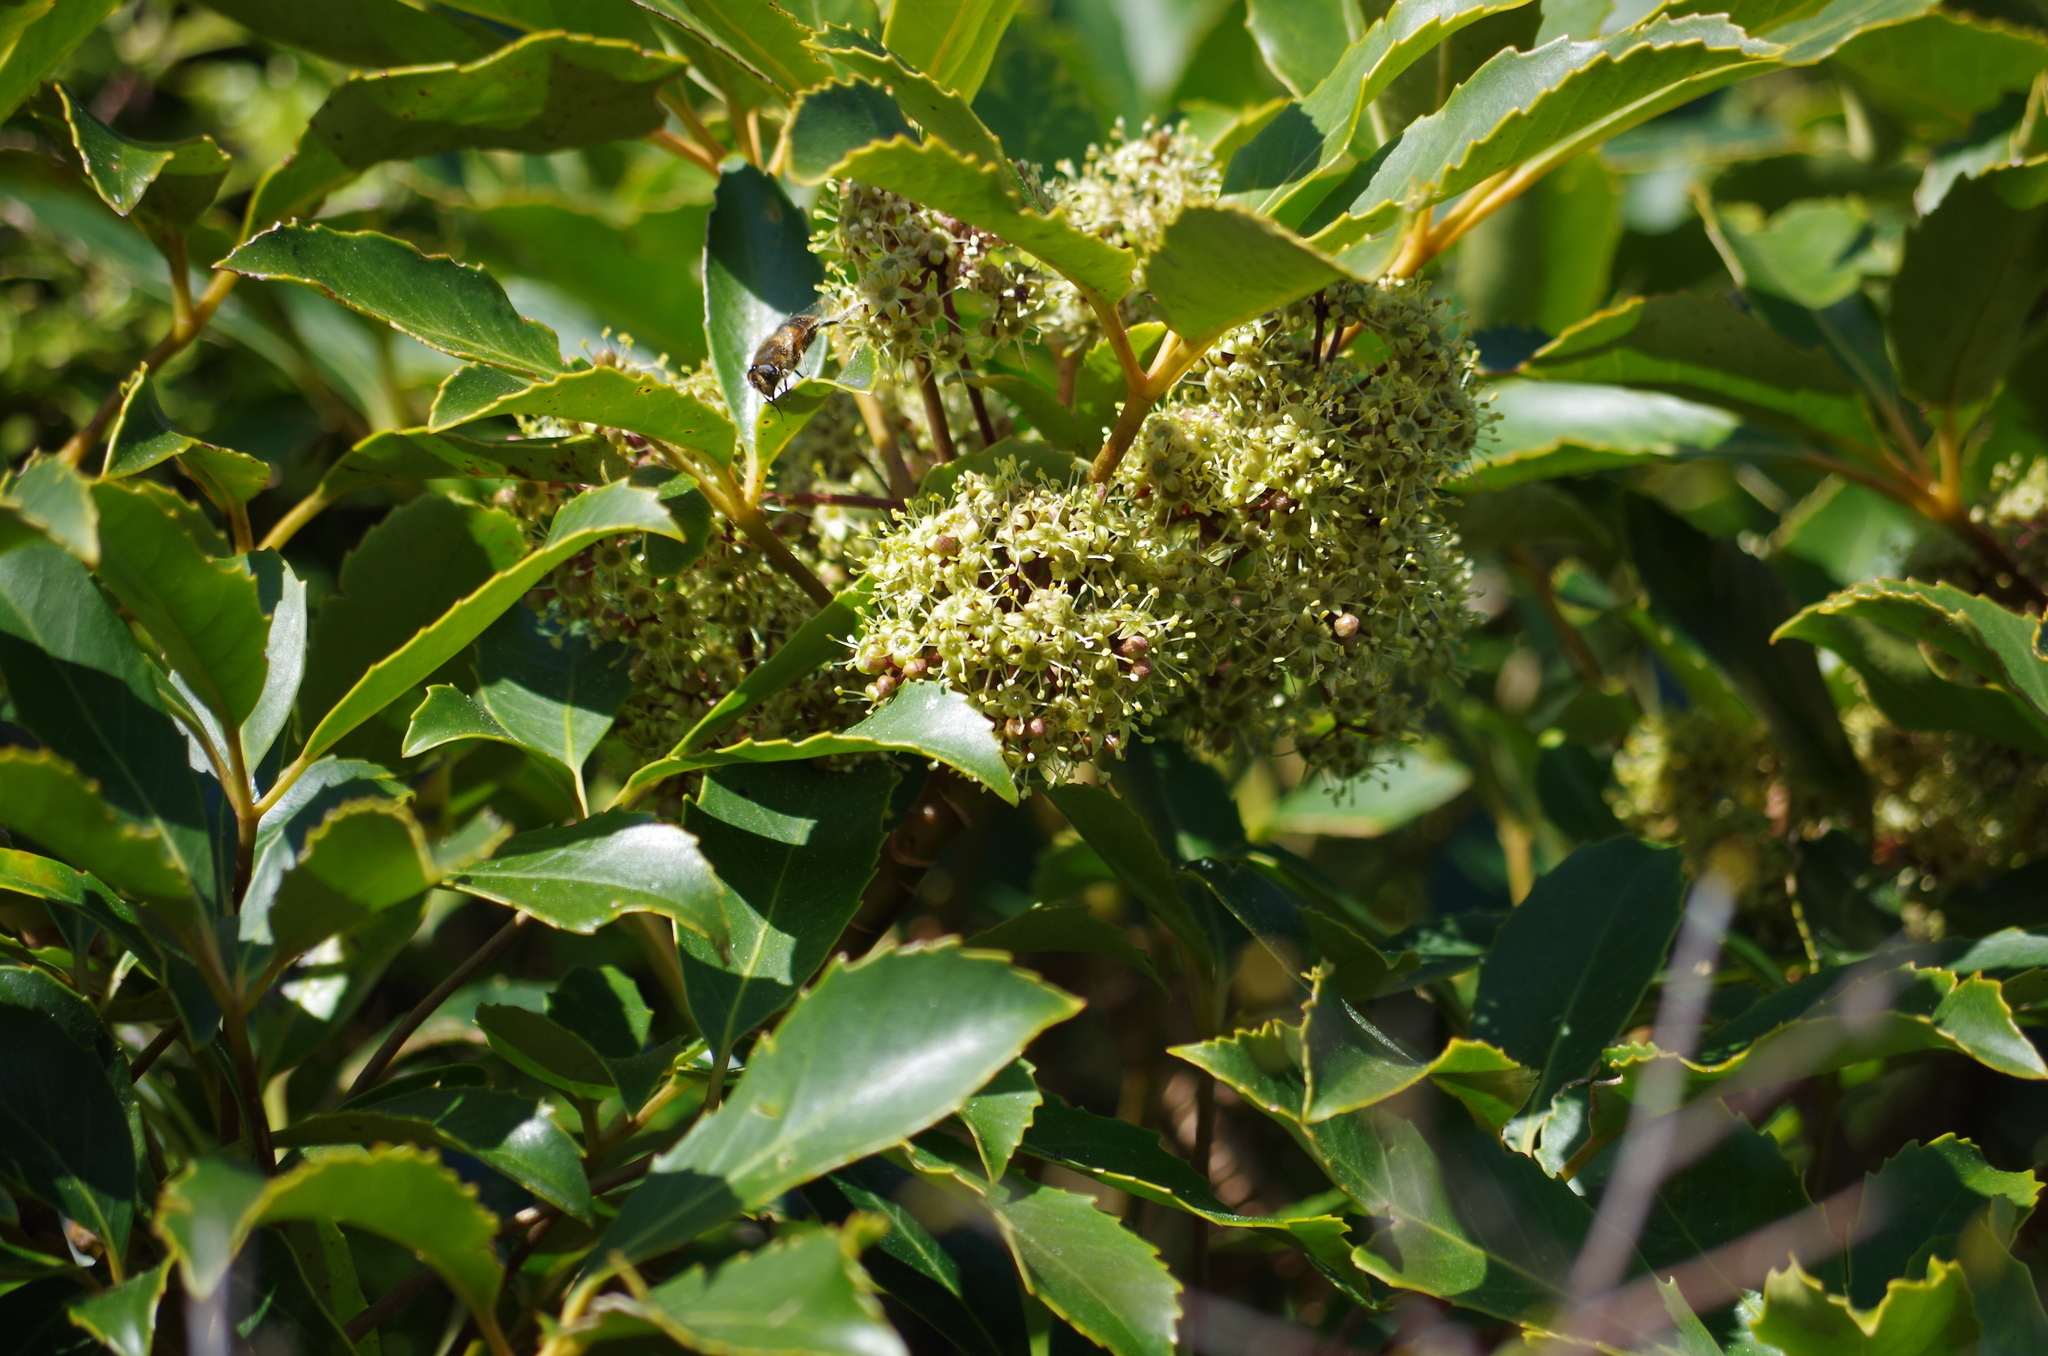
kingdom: Plantae
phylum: Tracheophyta
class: Magnoliopsida
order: Apiales
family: Araliaceae
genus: Neopanax
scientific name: Neopanax arboreus
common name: Five-fingers
